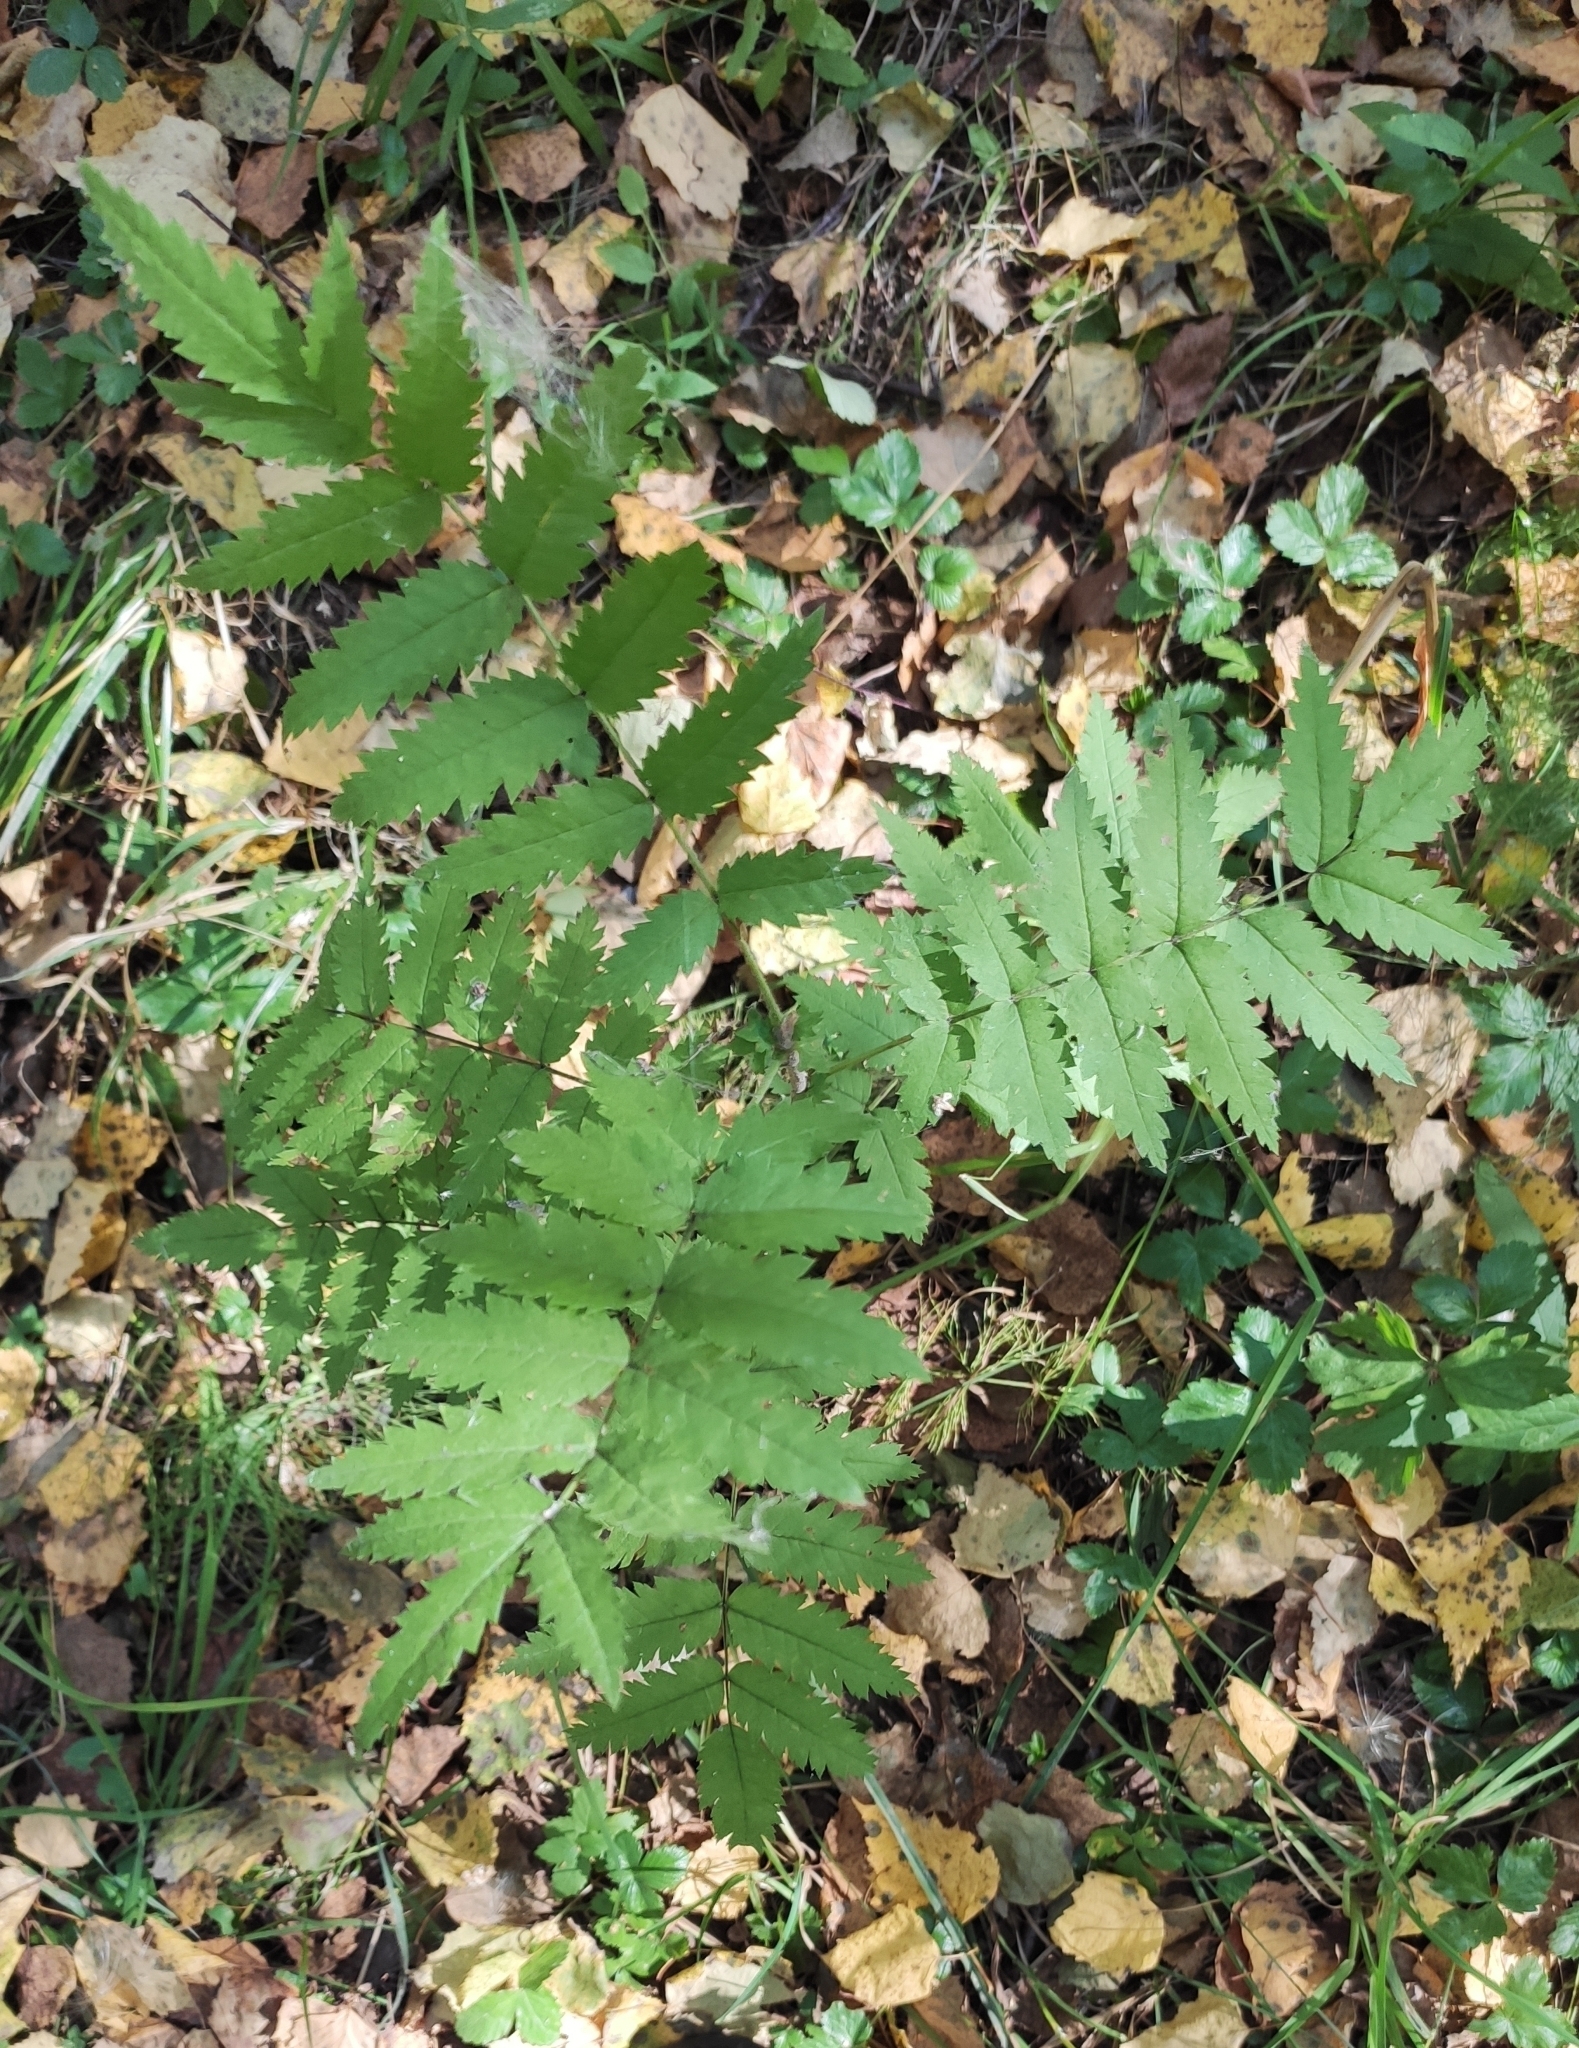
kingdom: Plantae
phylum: Tracheophyta
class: Magnoliopsida
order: Rosales
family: Rosaceae
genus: Sorbus
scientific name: Sorbus aucuparia
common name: Rowan
